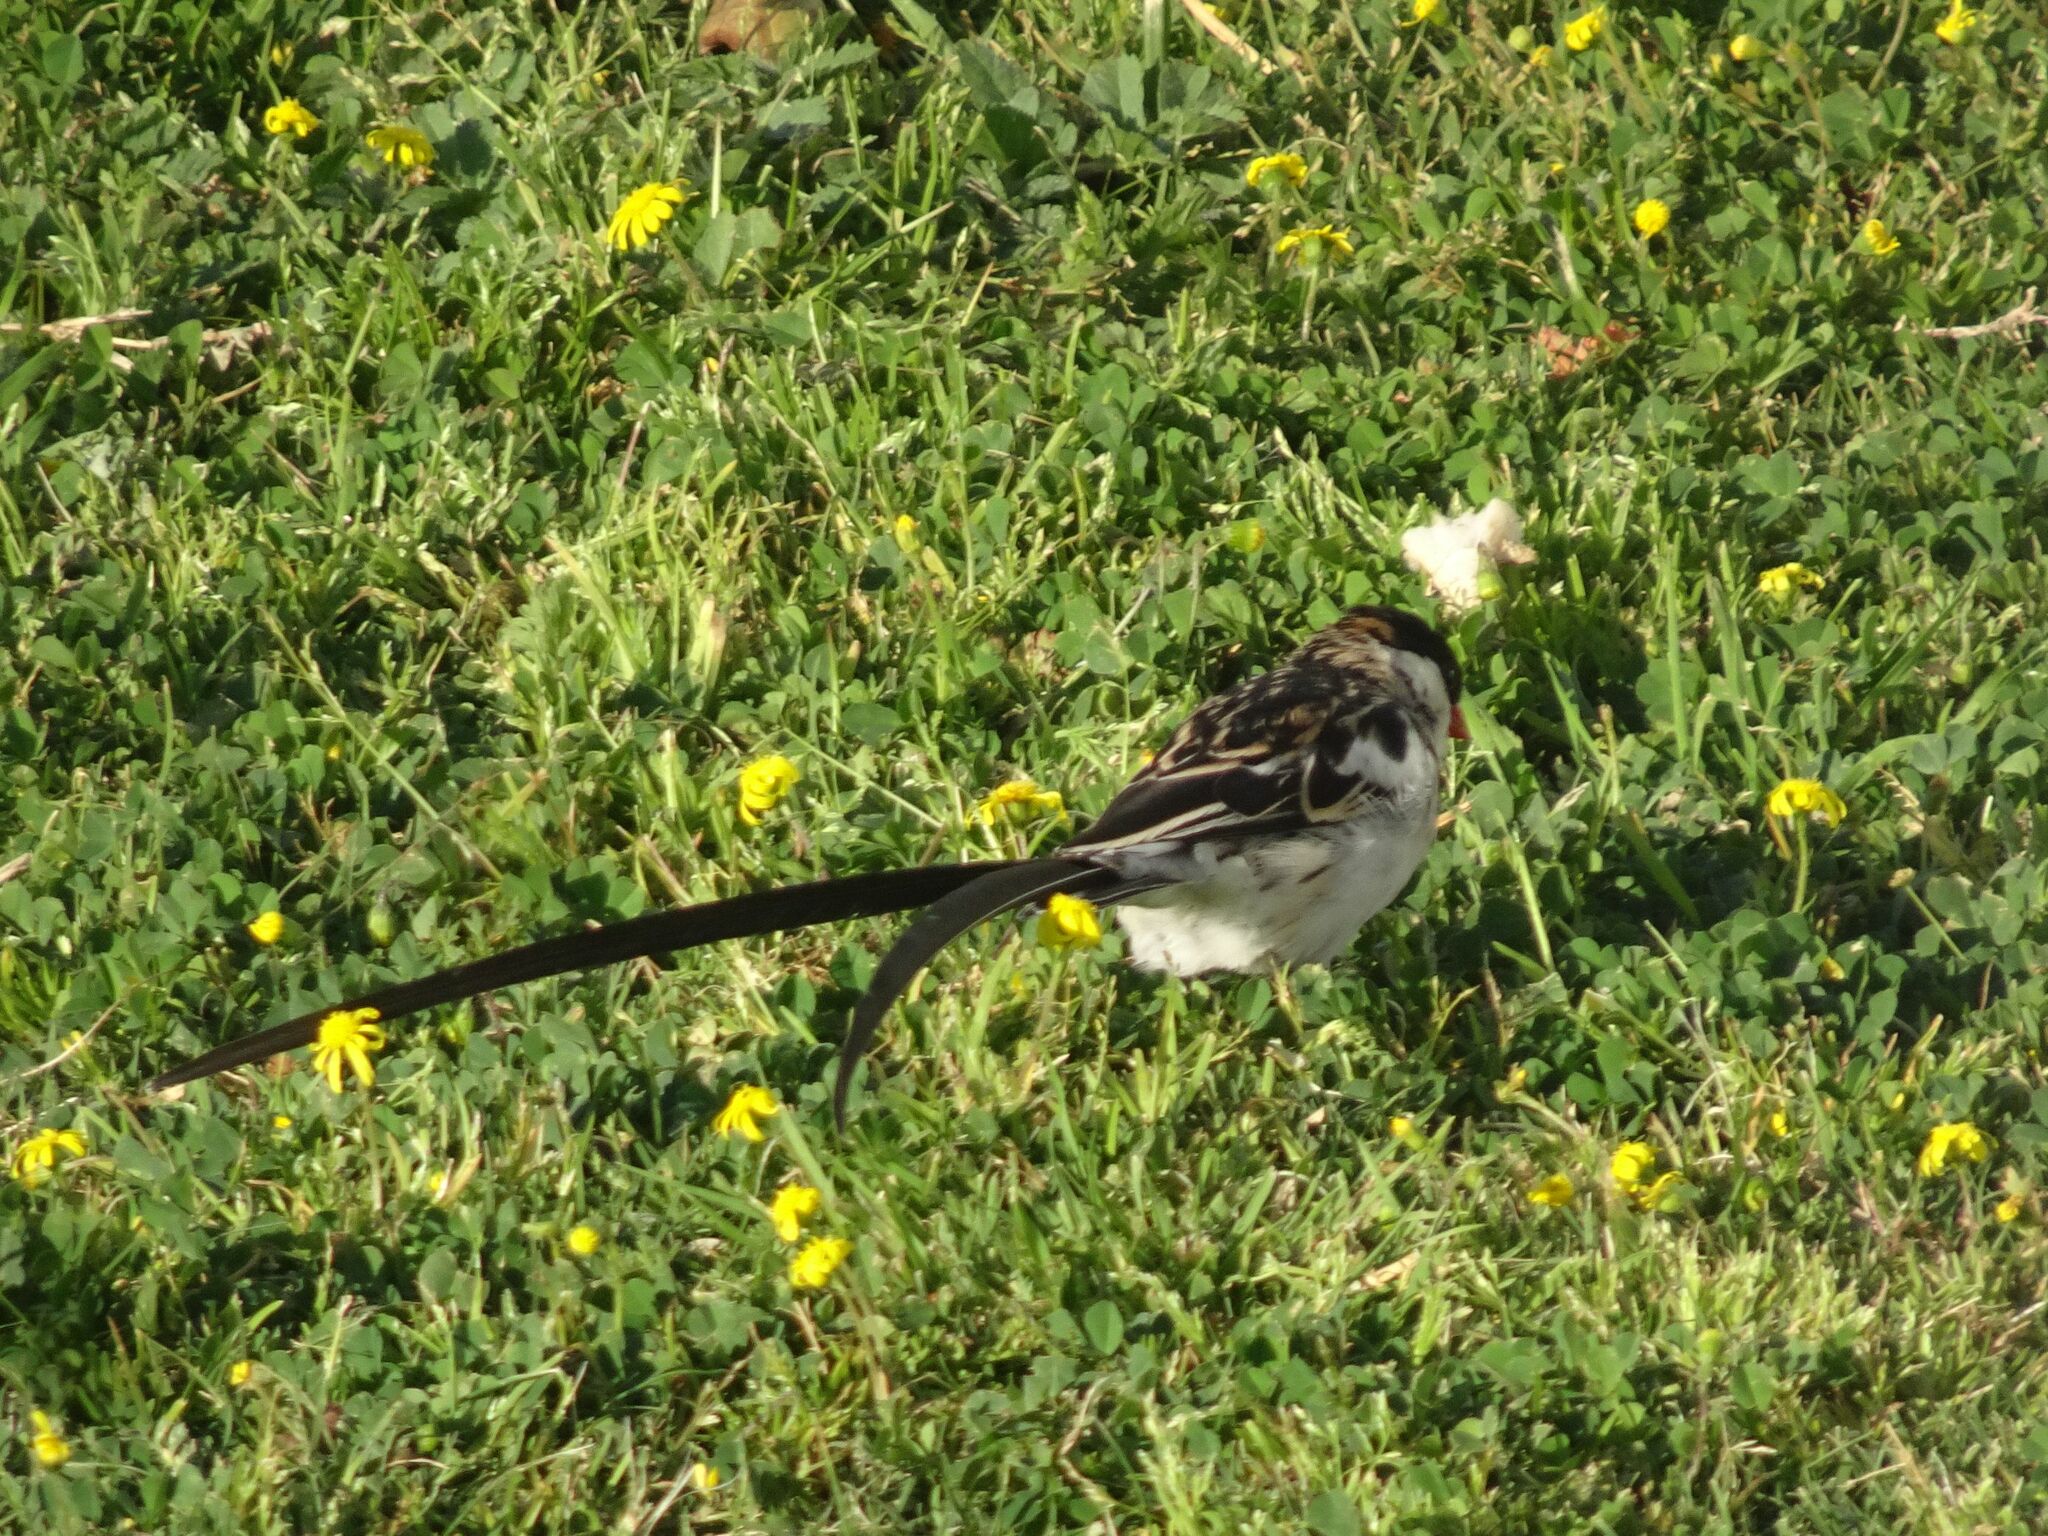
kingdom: Animalia
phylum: Chordata
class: Aves
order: Passeriformes
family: Viduidae
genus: Vidua
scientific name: Vidua macroura
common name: Pin-tailed whydah
